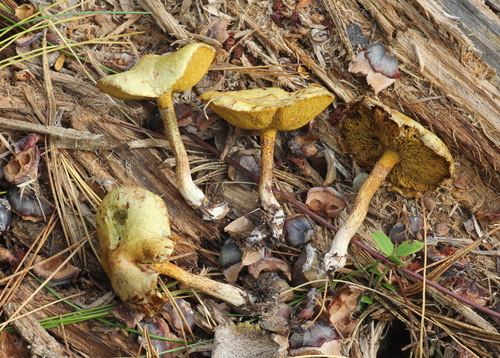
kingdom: Fungi
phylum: Basidiomycota
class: Agaricomycetes
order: Boletales
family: Suillaceae
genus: Suillus
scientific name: Suillus americanus
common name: Chicken fat mushroom
